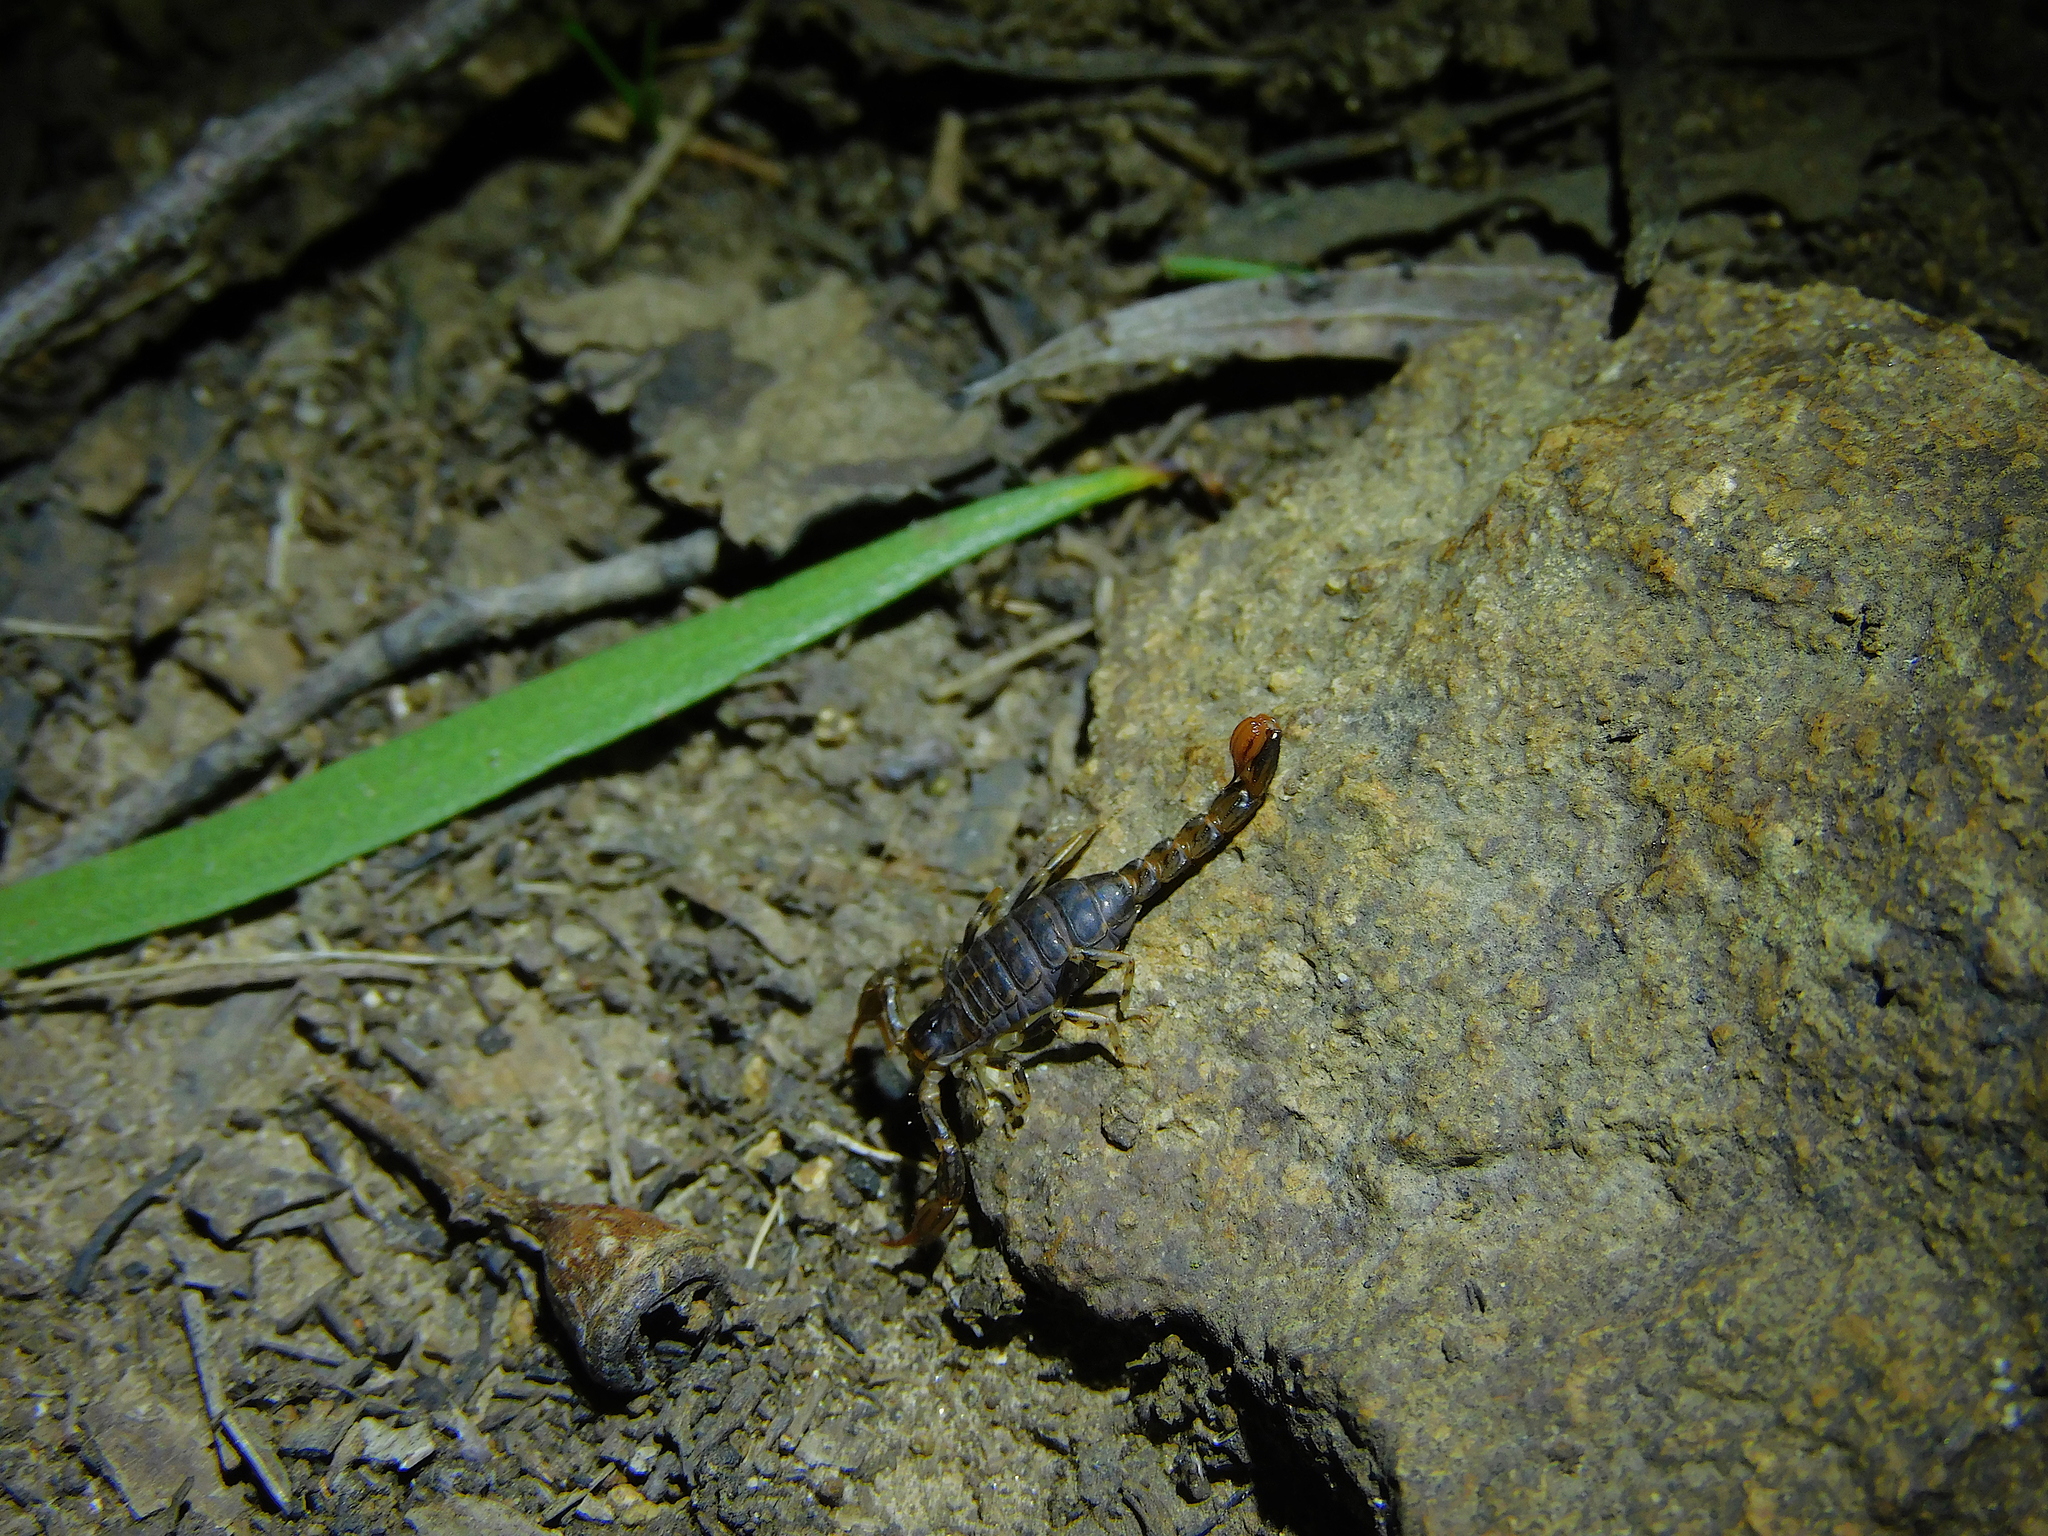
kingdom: Animalia
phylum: Arthropoda
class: Arachnida
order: Scorpiones
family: Bothriuridae
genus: Cercophonius
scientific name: Cercophonius squama
